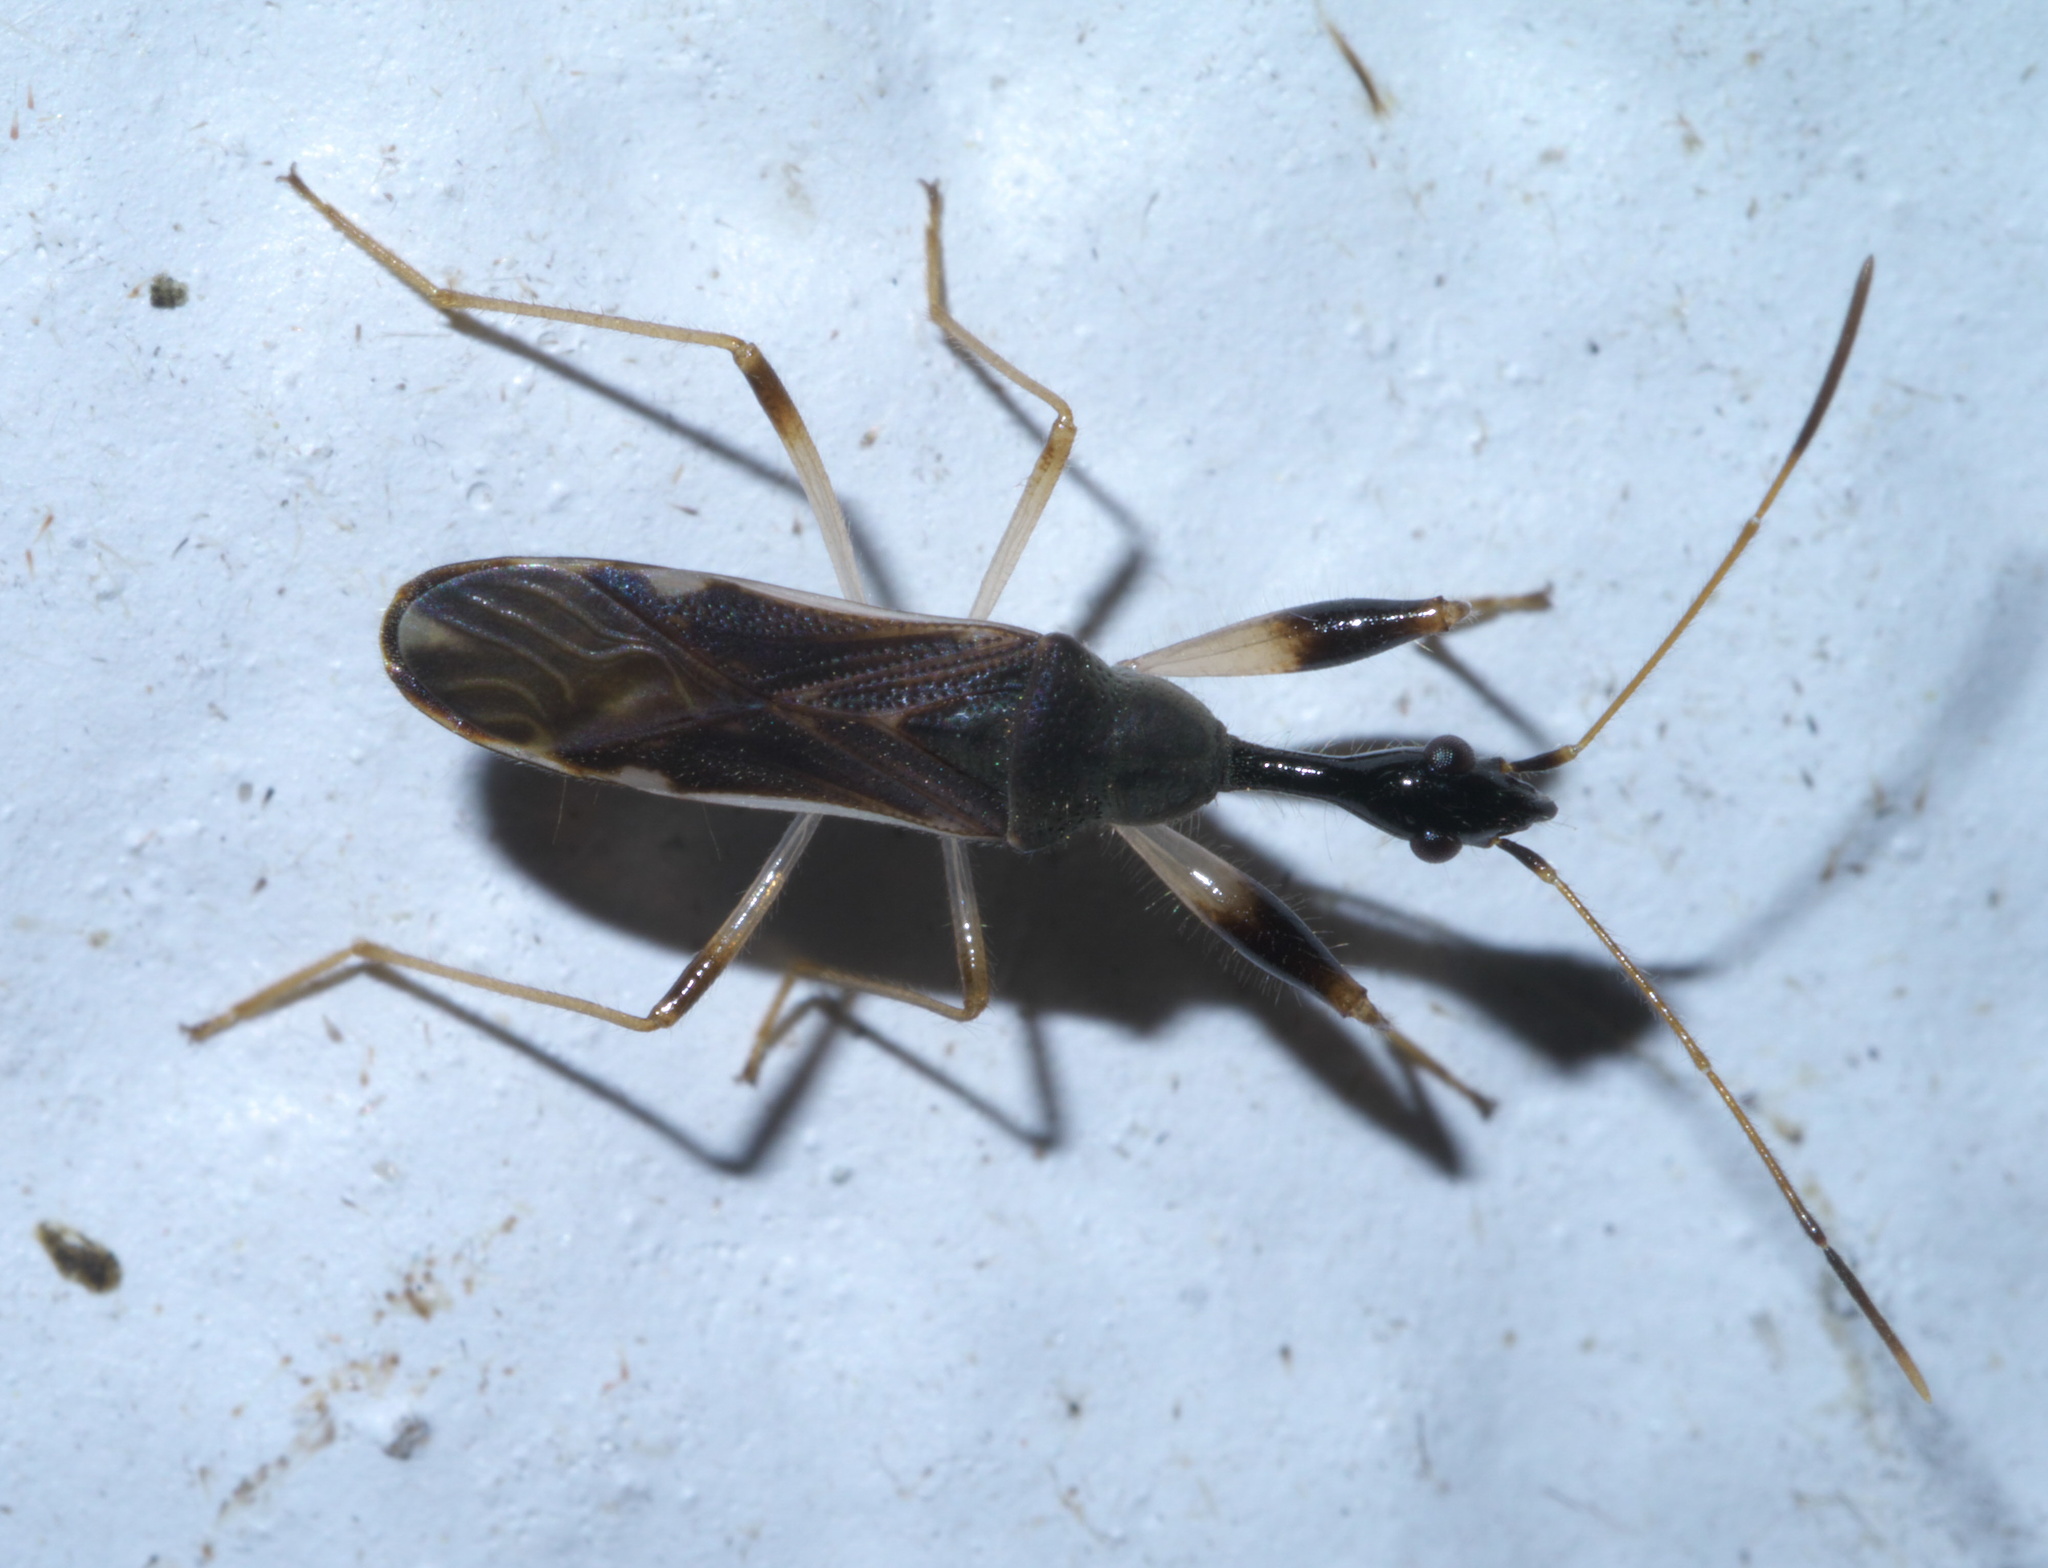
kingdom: Animalia
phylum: Arthropoda
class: Insecta
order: Hemiptera
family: Rhyparochromidae
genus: Myodocha
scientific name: Myodocha serripes
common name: Long-necked seed bug
